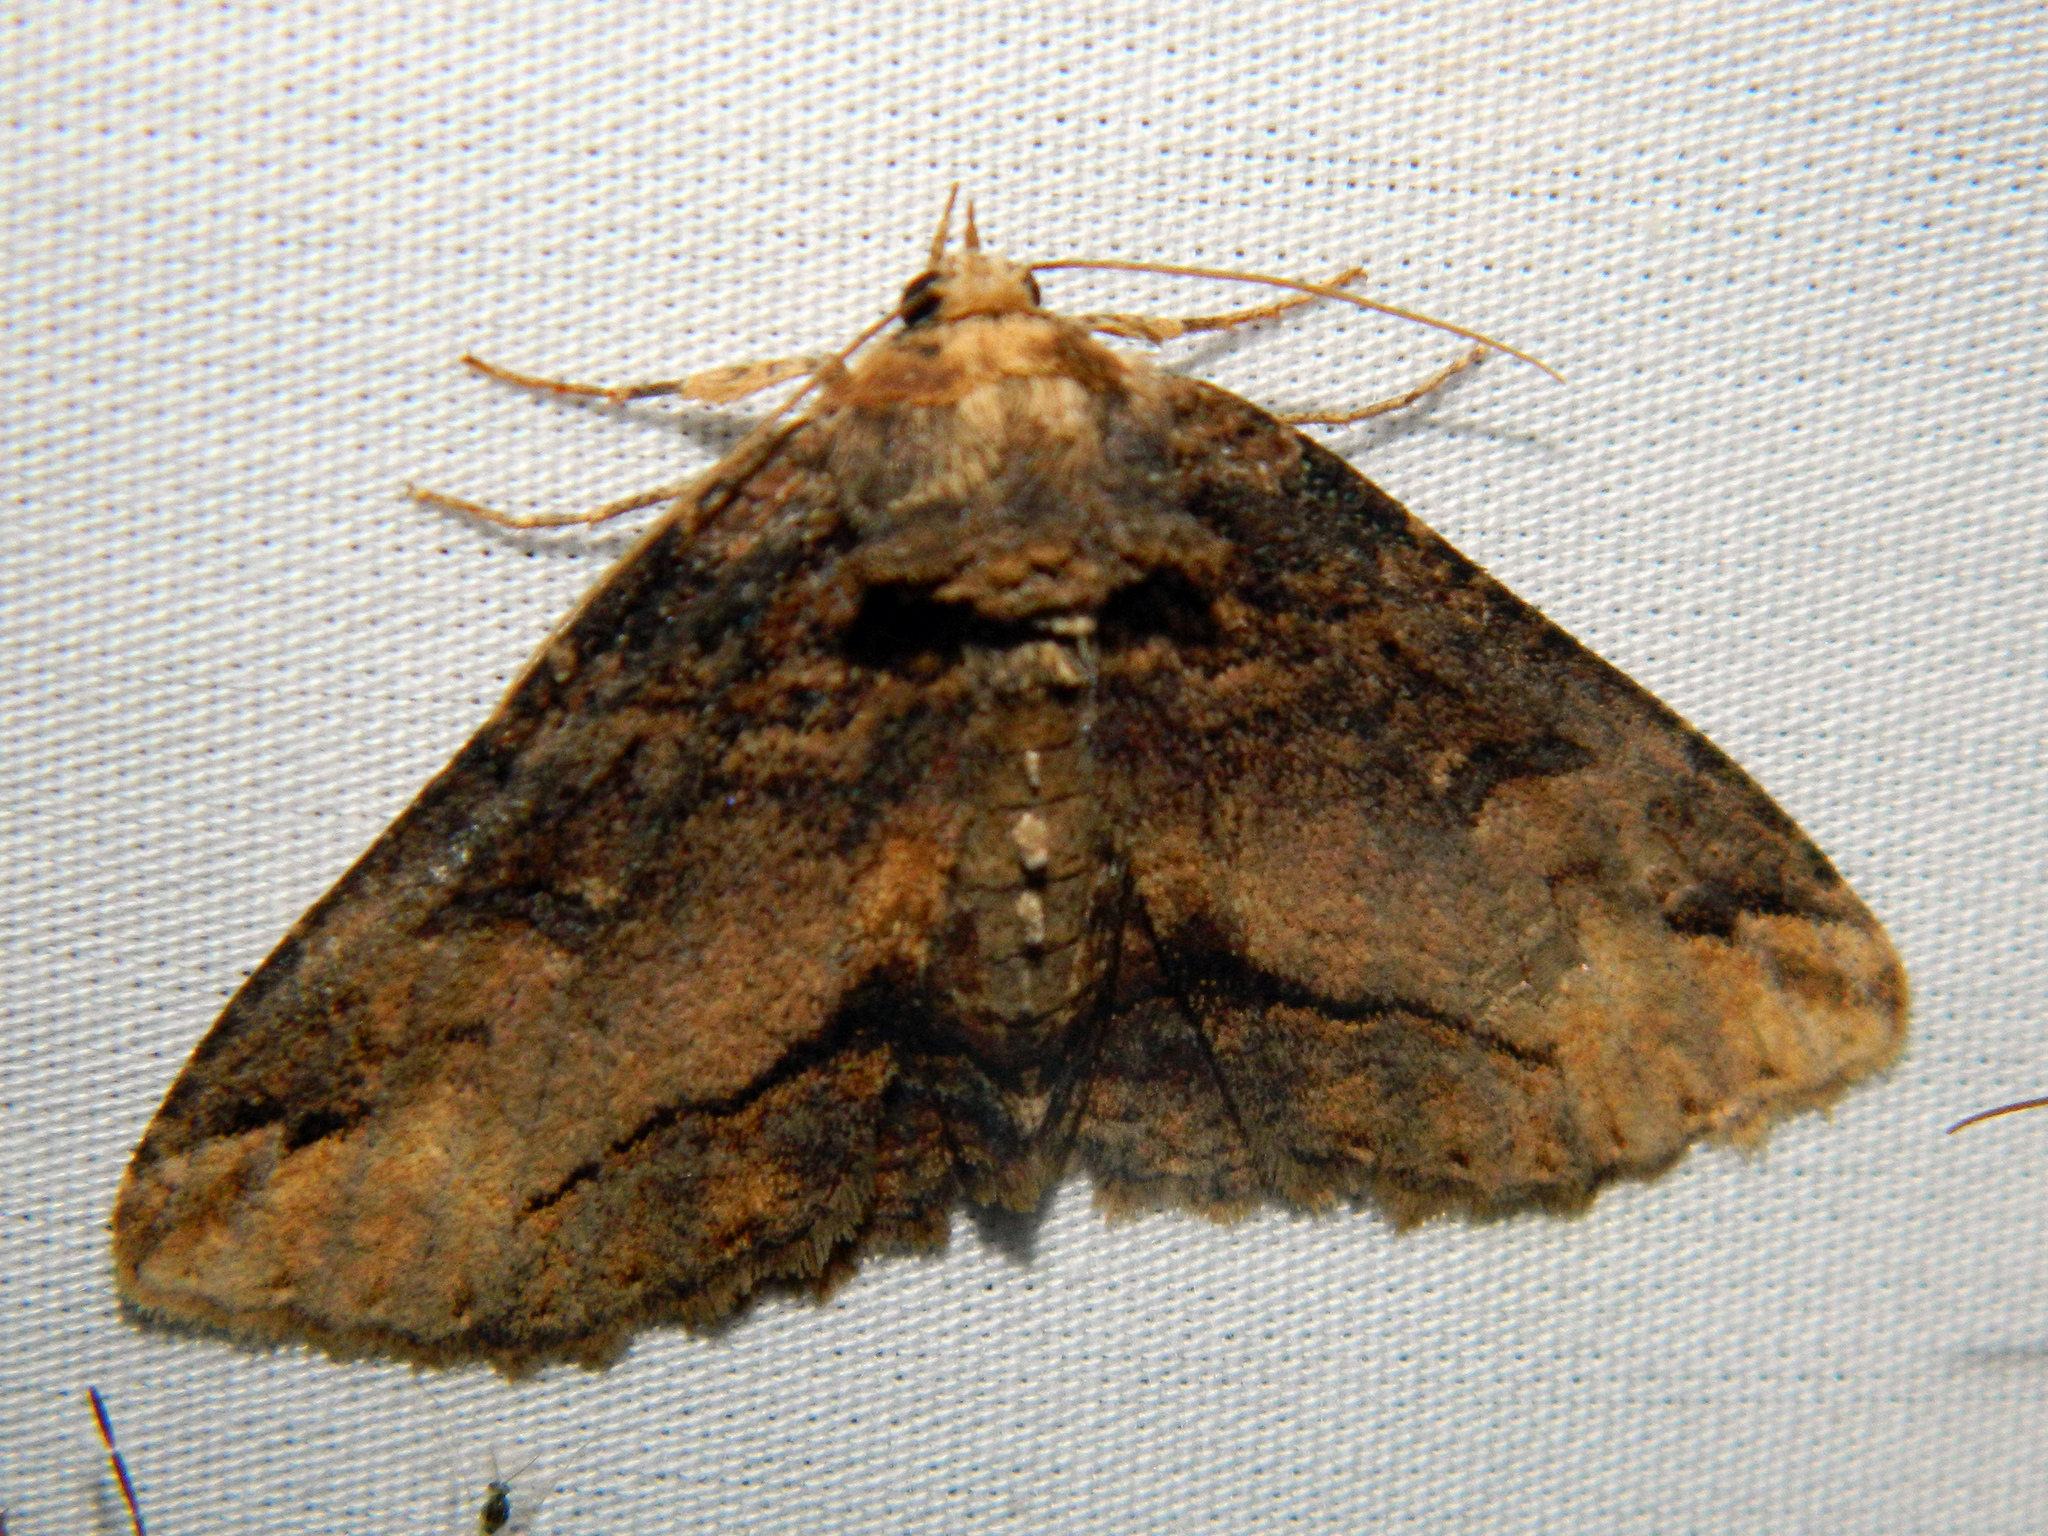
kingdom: Animalia
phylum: Arthropoda
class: Insecta
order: Lepidoptera
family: Erebidae
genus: Zale
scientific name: Zale minerea
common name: Colorful zale moth
